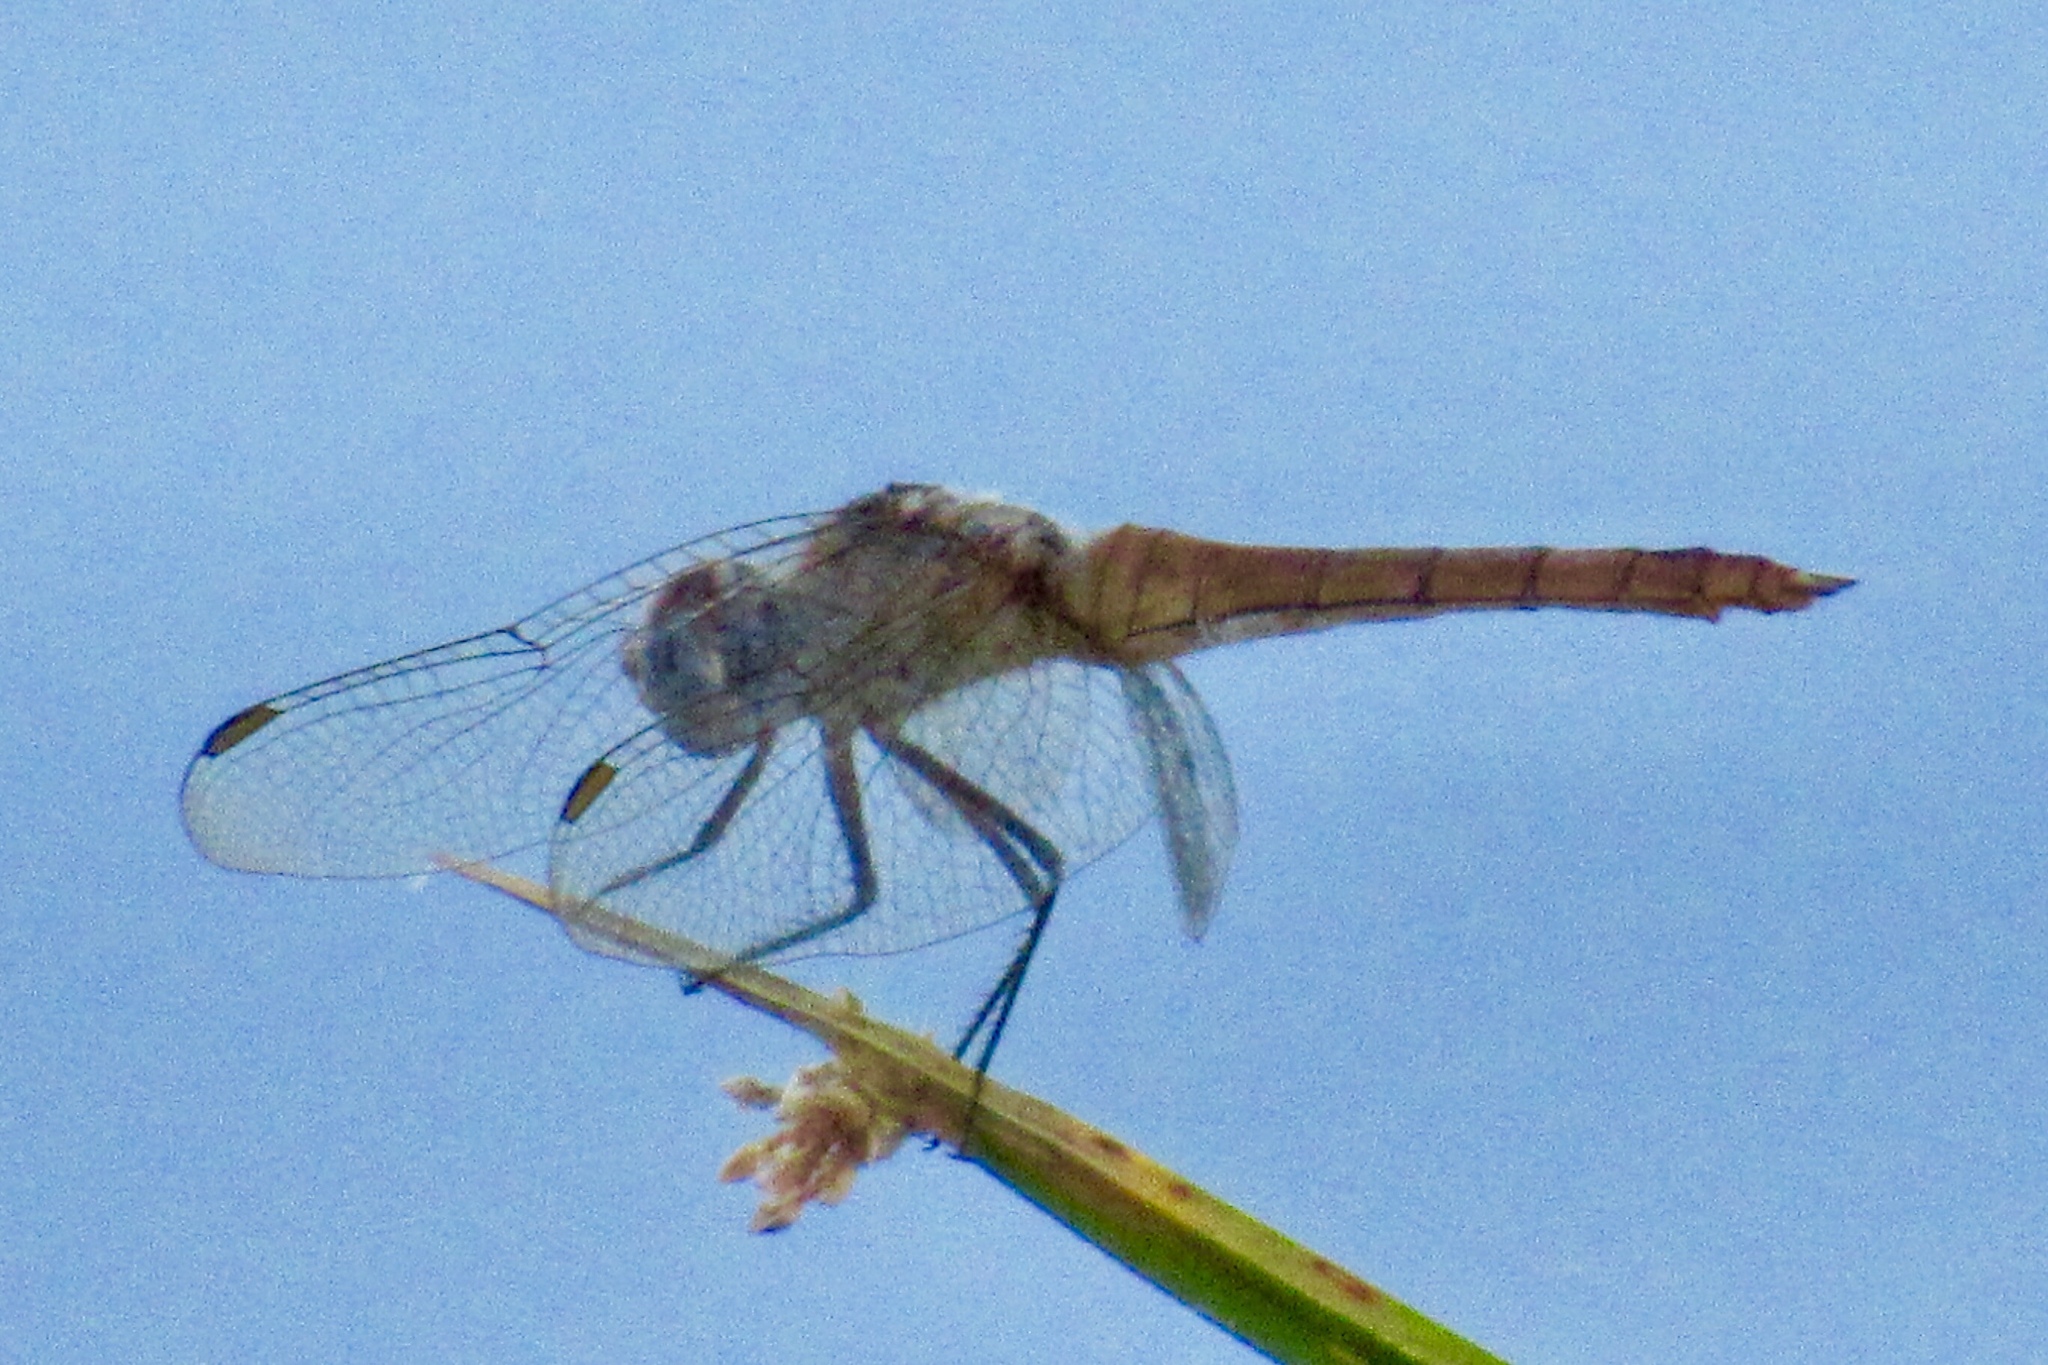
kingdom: Animalia
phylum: Arthropoda
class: Insecta
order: Odonata
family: Libellulidae
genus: Brachymesia
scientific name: Brachymesia furcata
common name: Red-taled pennant
